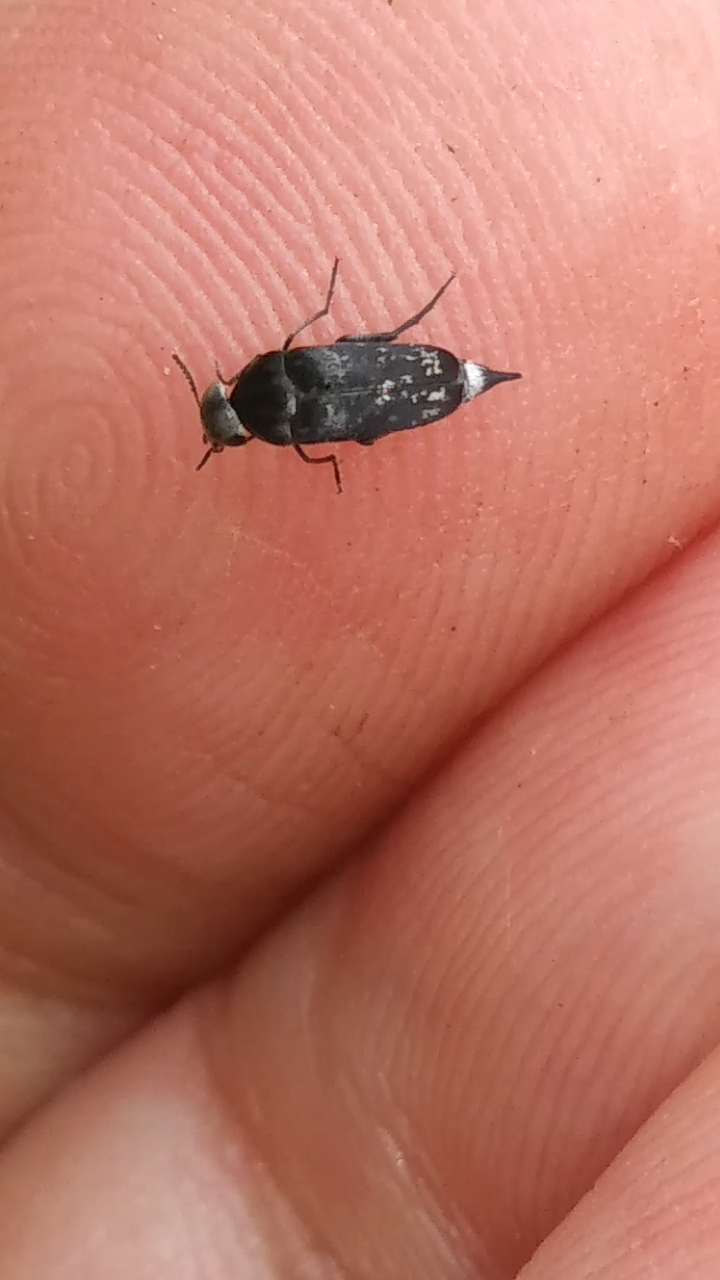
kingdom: Animalia
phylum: Arthropoda
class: Insecta
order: Coleoptera
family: Mordellidae
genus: Mordella
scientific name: Mordella marginata
